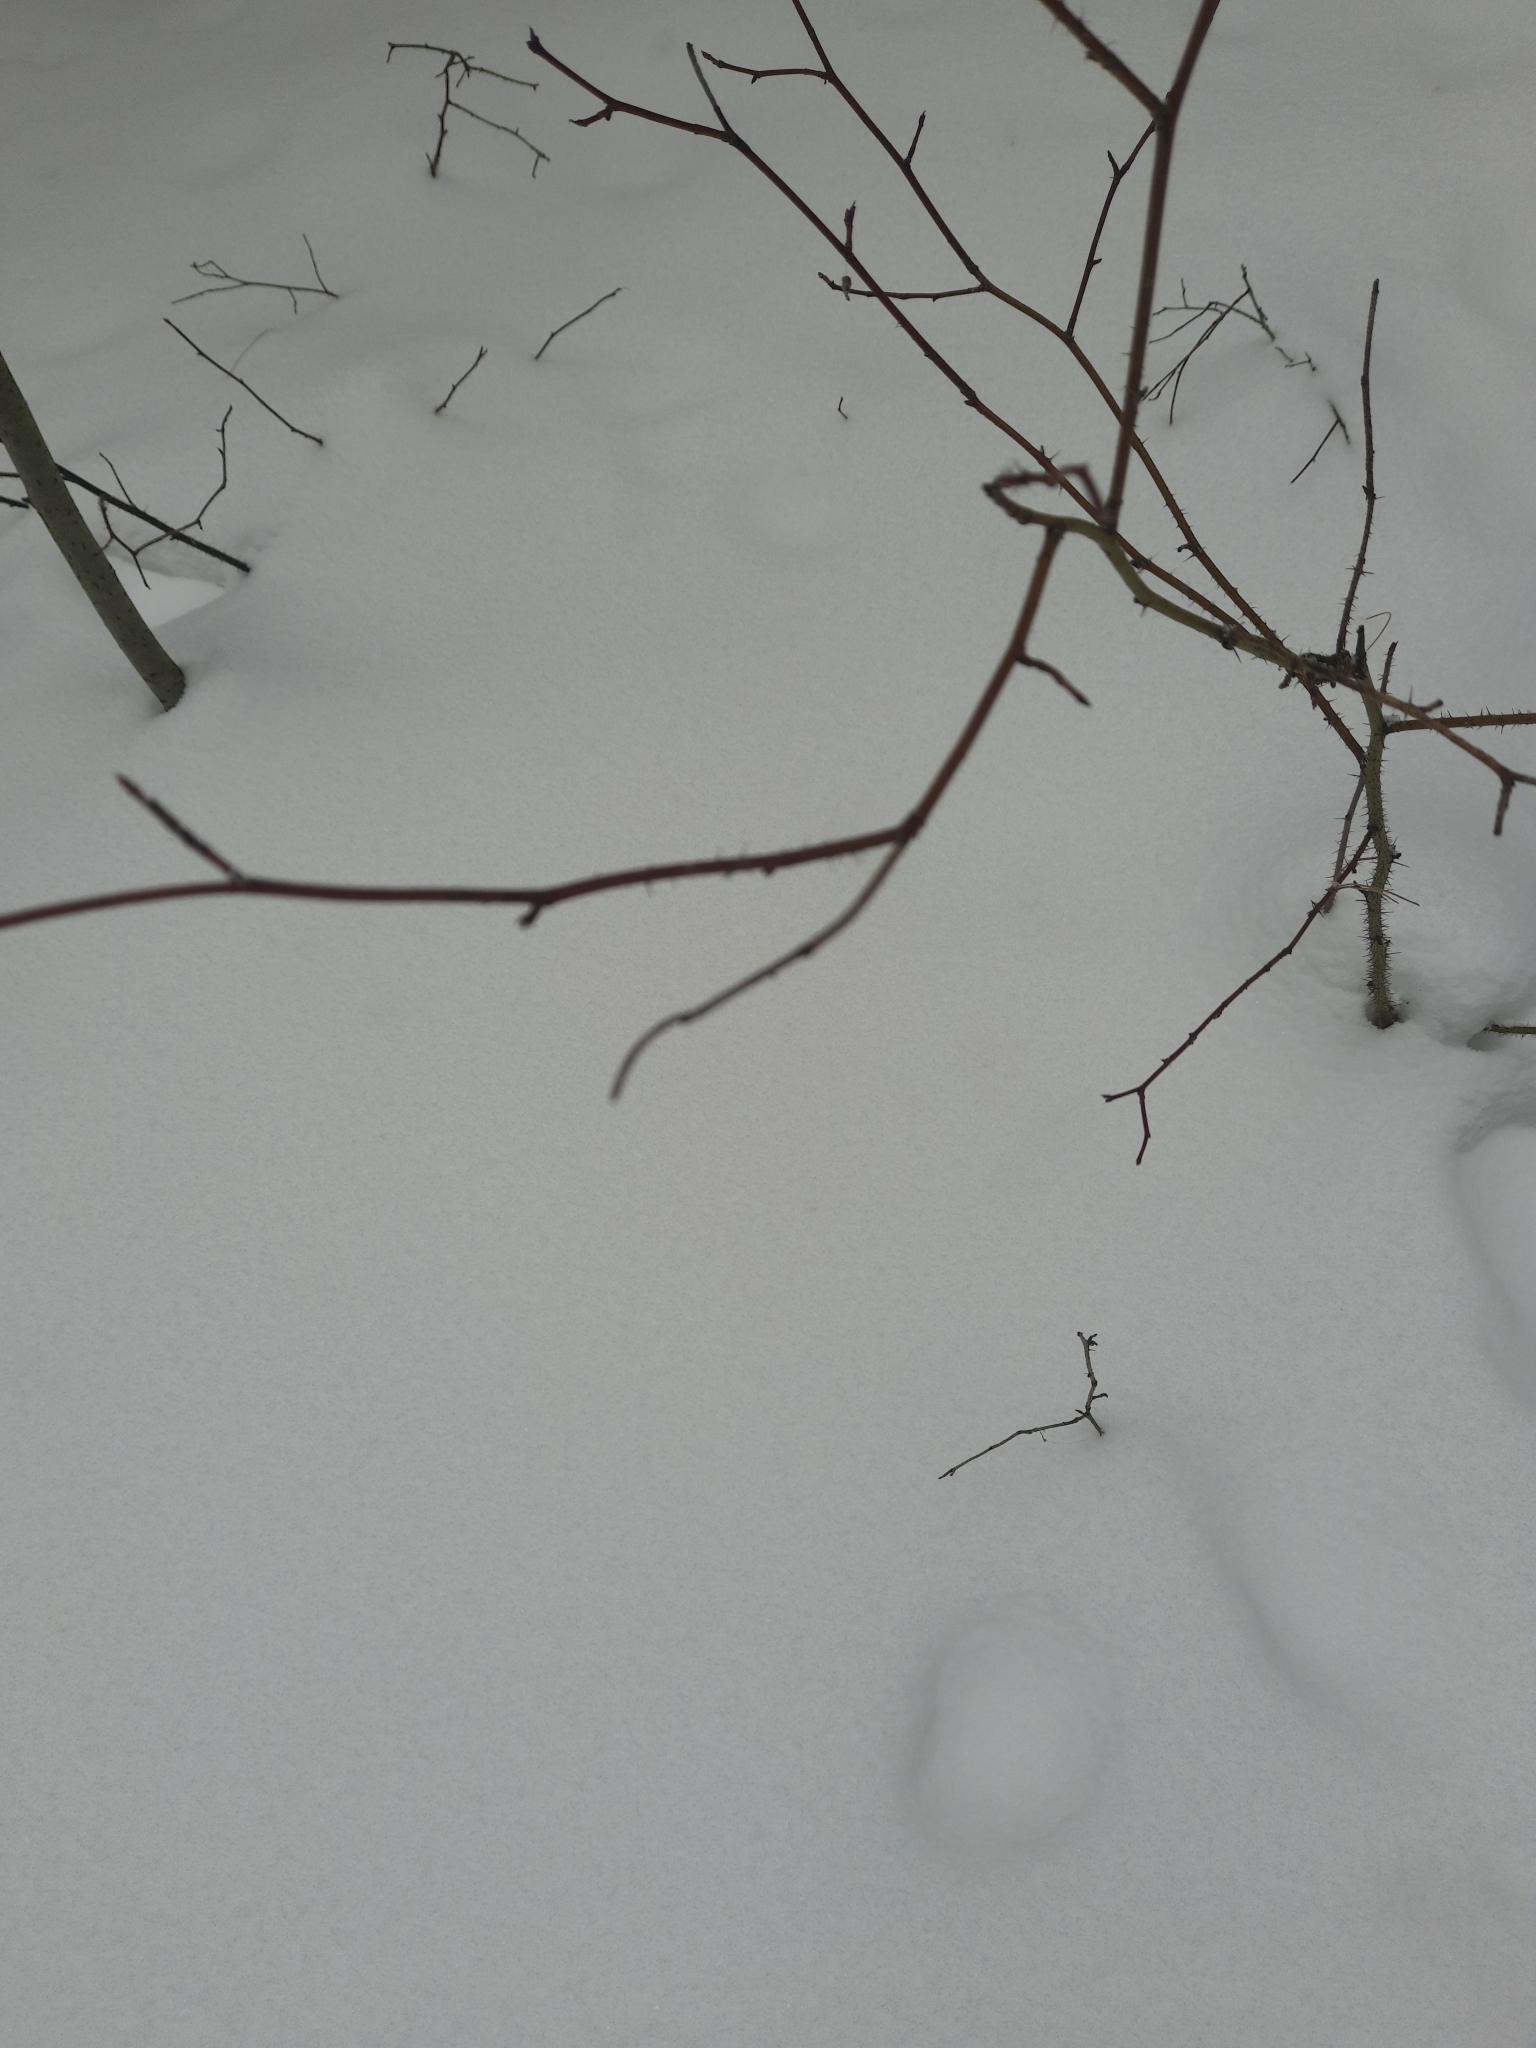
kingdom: Plantae
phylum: Tracheophyta
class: Magnoliopsida
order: Rosales
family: Rosaceae
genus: Rosa
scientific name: Rosa acicularis
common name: Prickly rose
